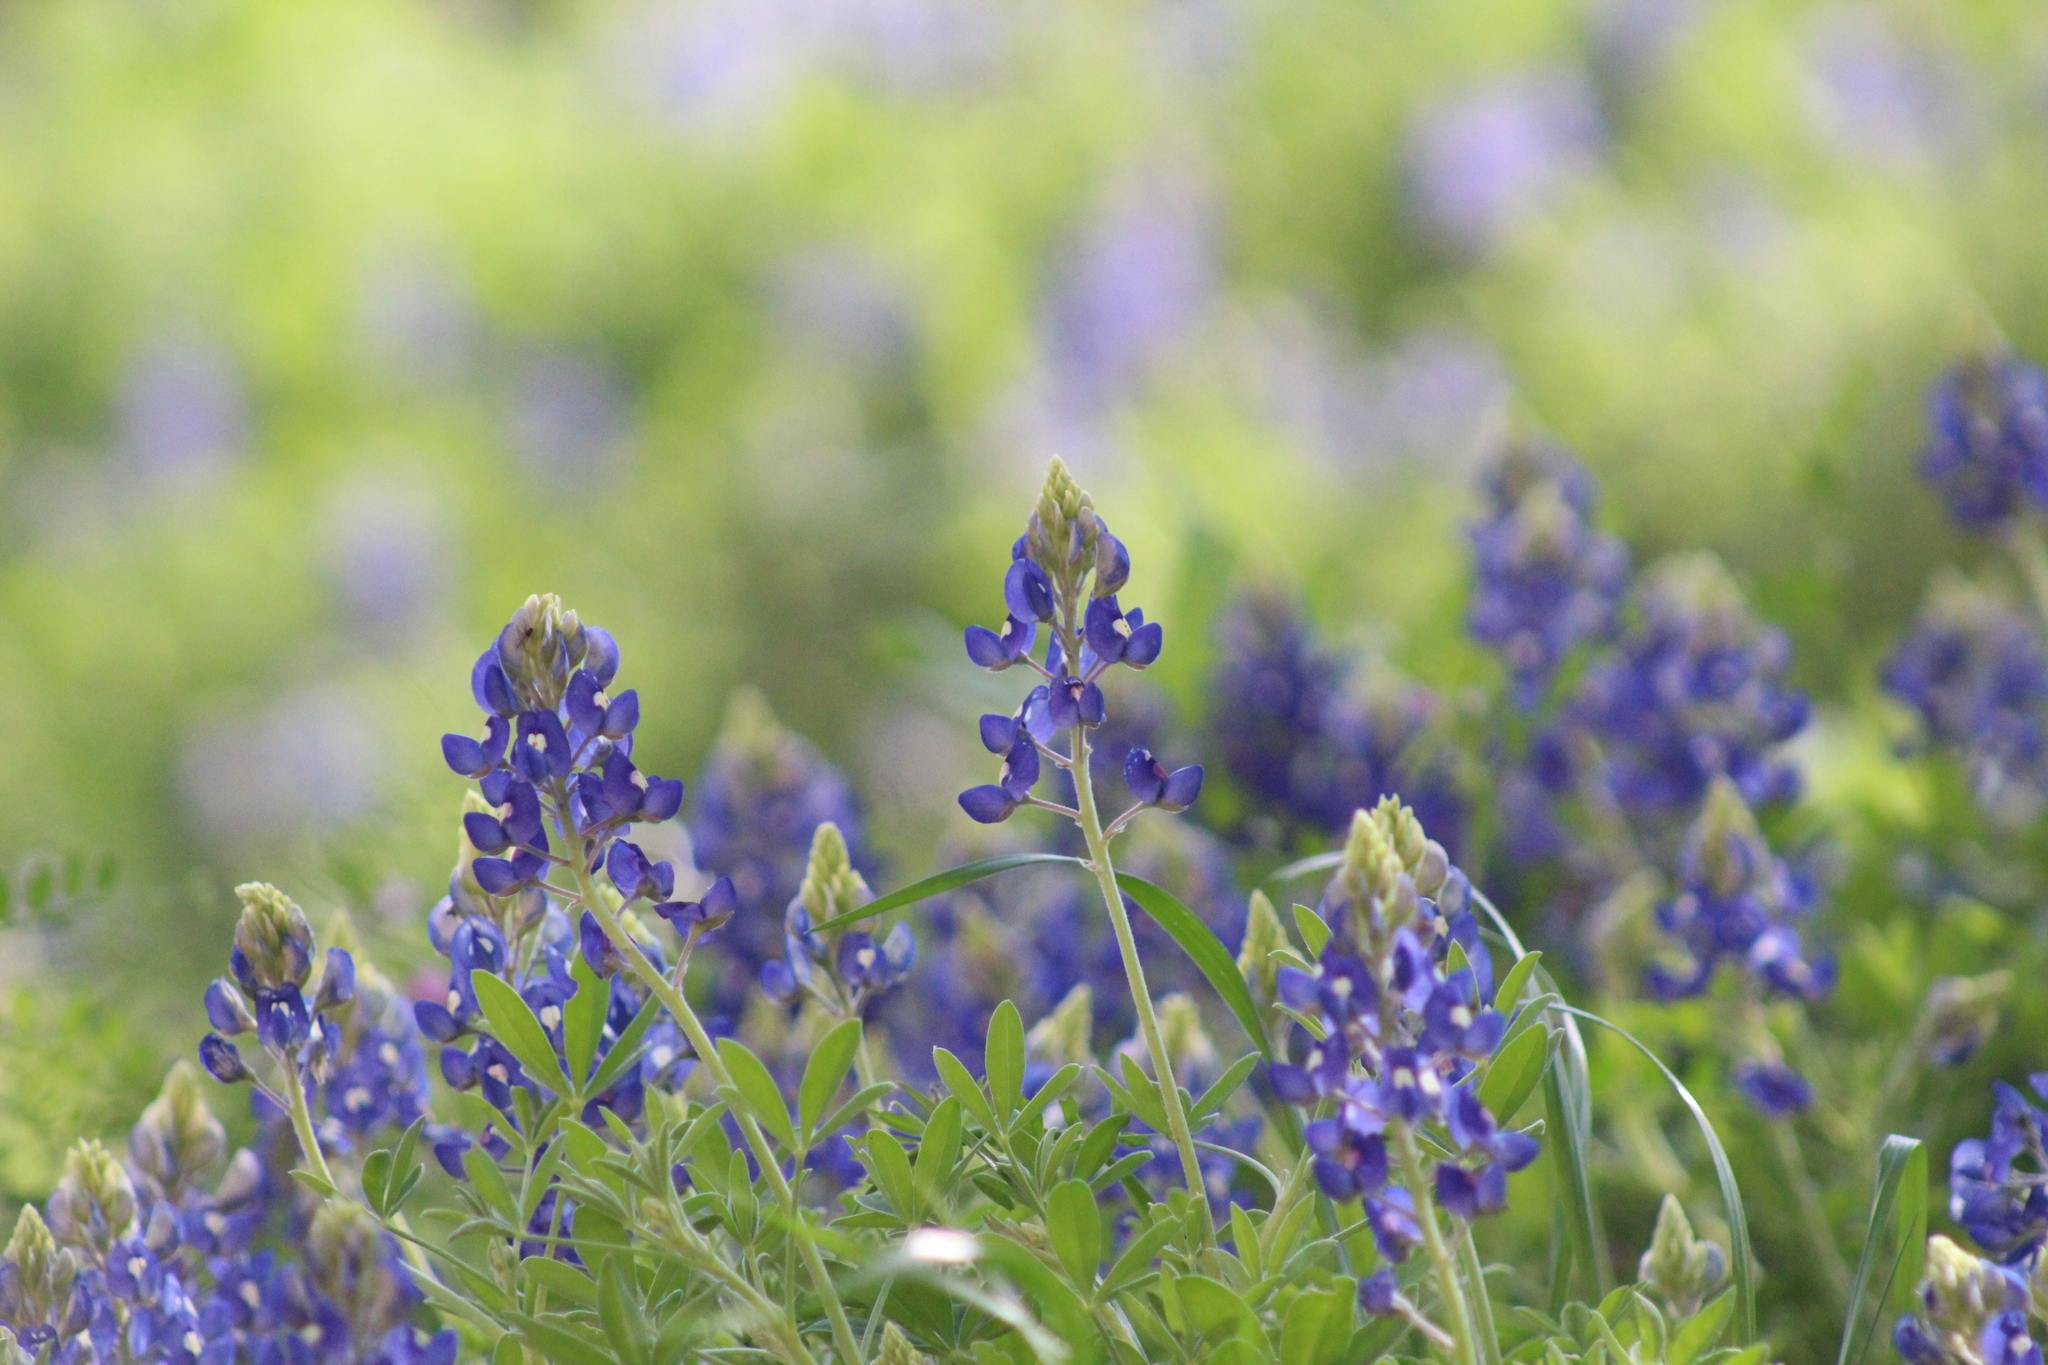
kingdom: Plantae
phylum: Tracheophyta
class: Magnoliopsida
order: Fabales
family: Fabaceae
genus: Lupinus
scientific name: Lupinus texensis
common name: Texas bluebonnet
